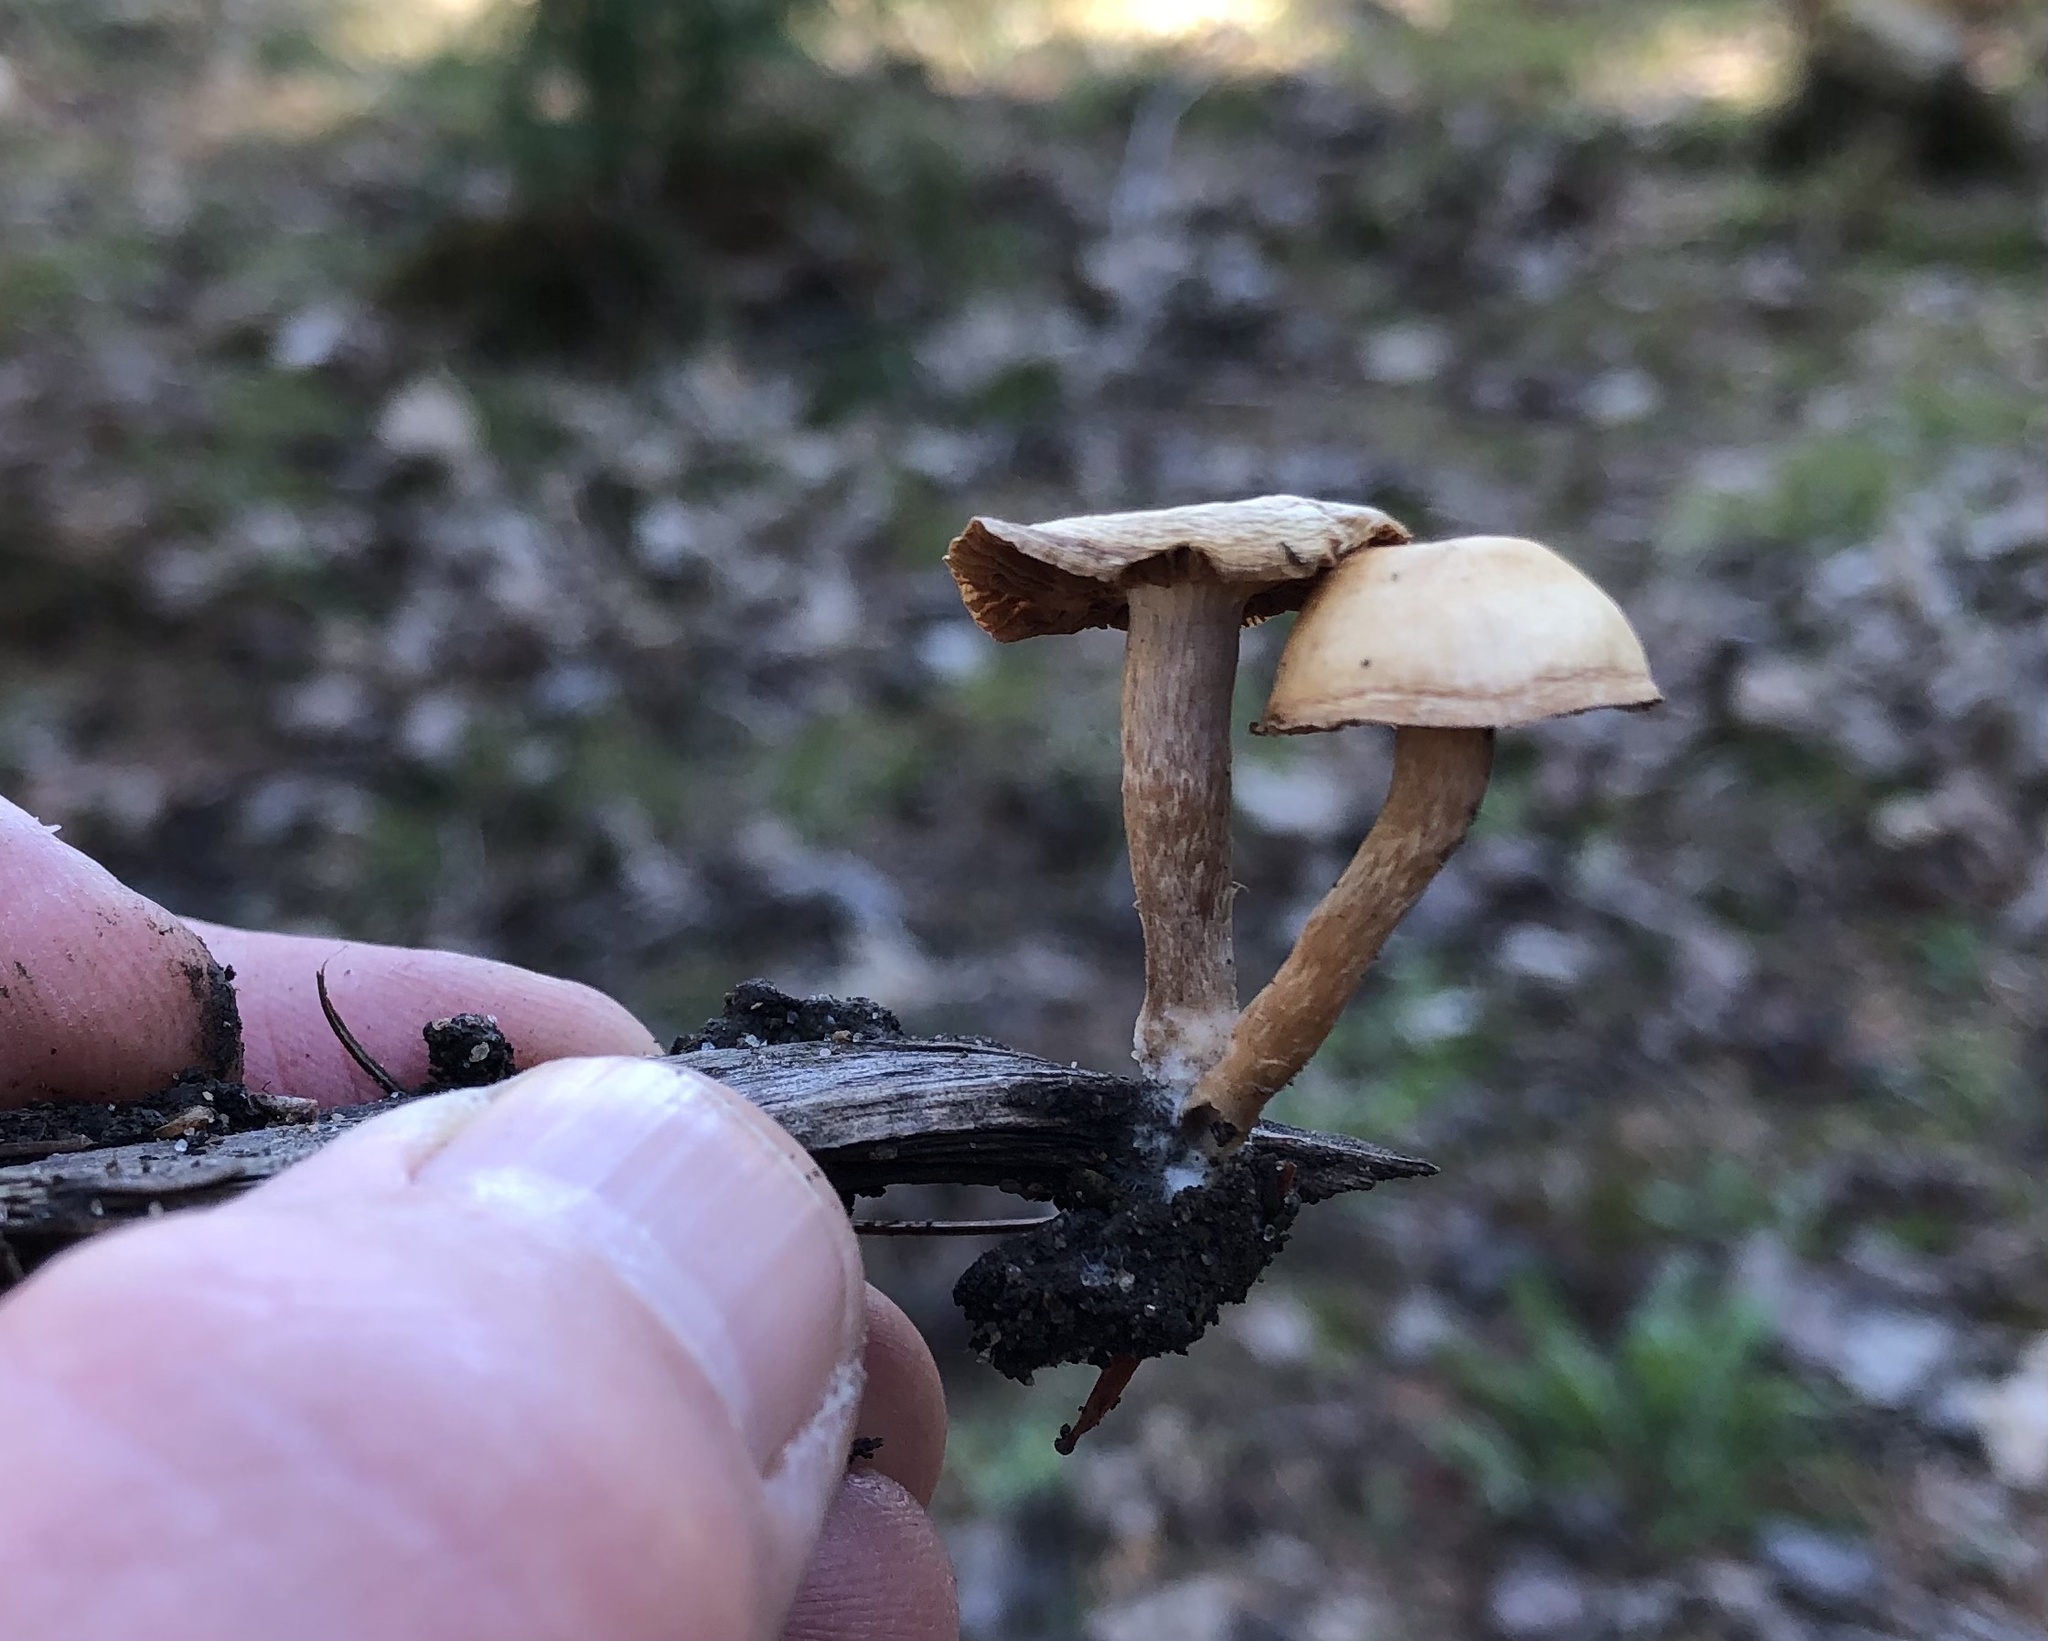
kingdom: Fungi
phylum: Basidiomycota
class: Agaricomycetes
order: Agaricales
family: Tubariaceae
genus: Tubaria
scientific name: Tubaria furfuracea
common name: Scurfy twiglet
